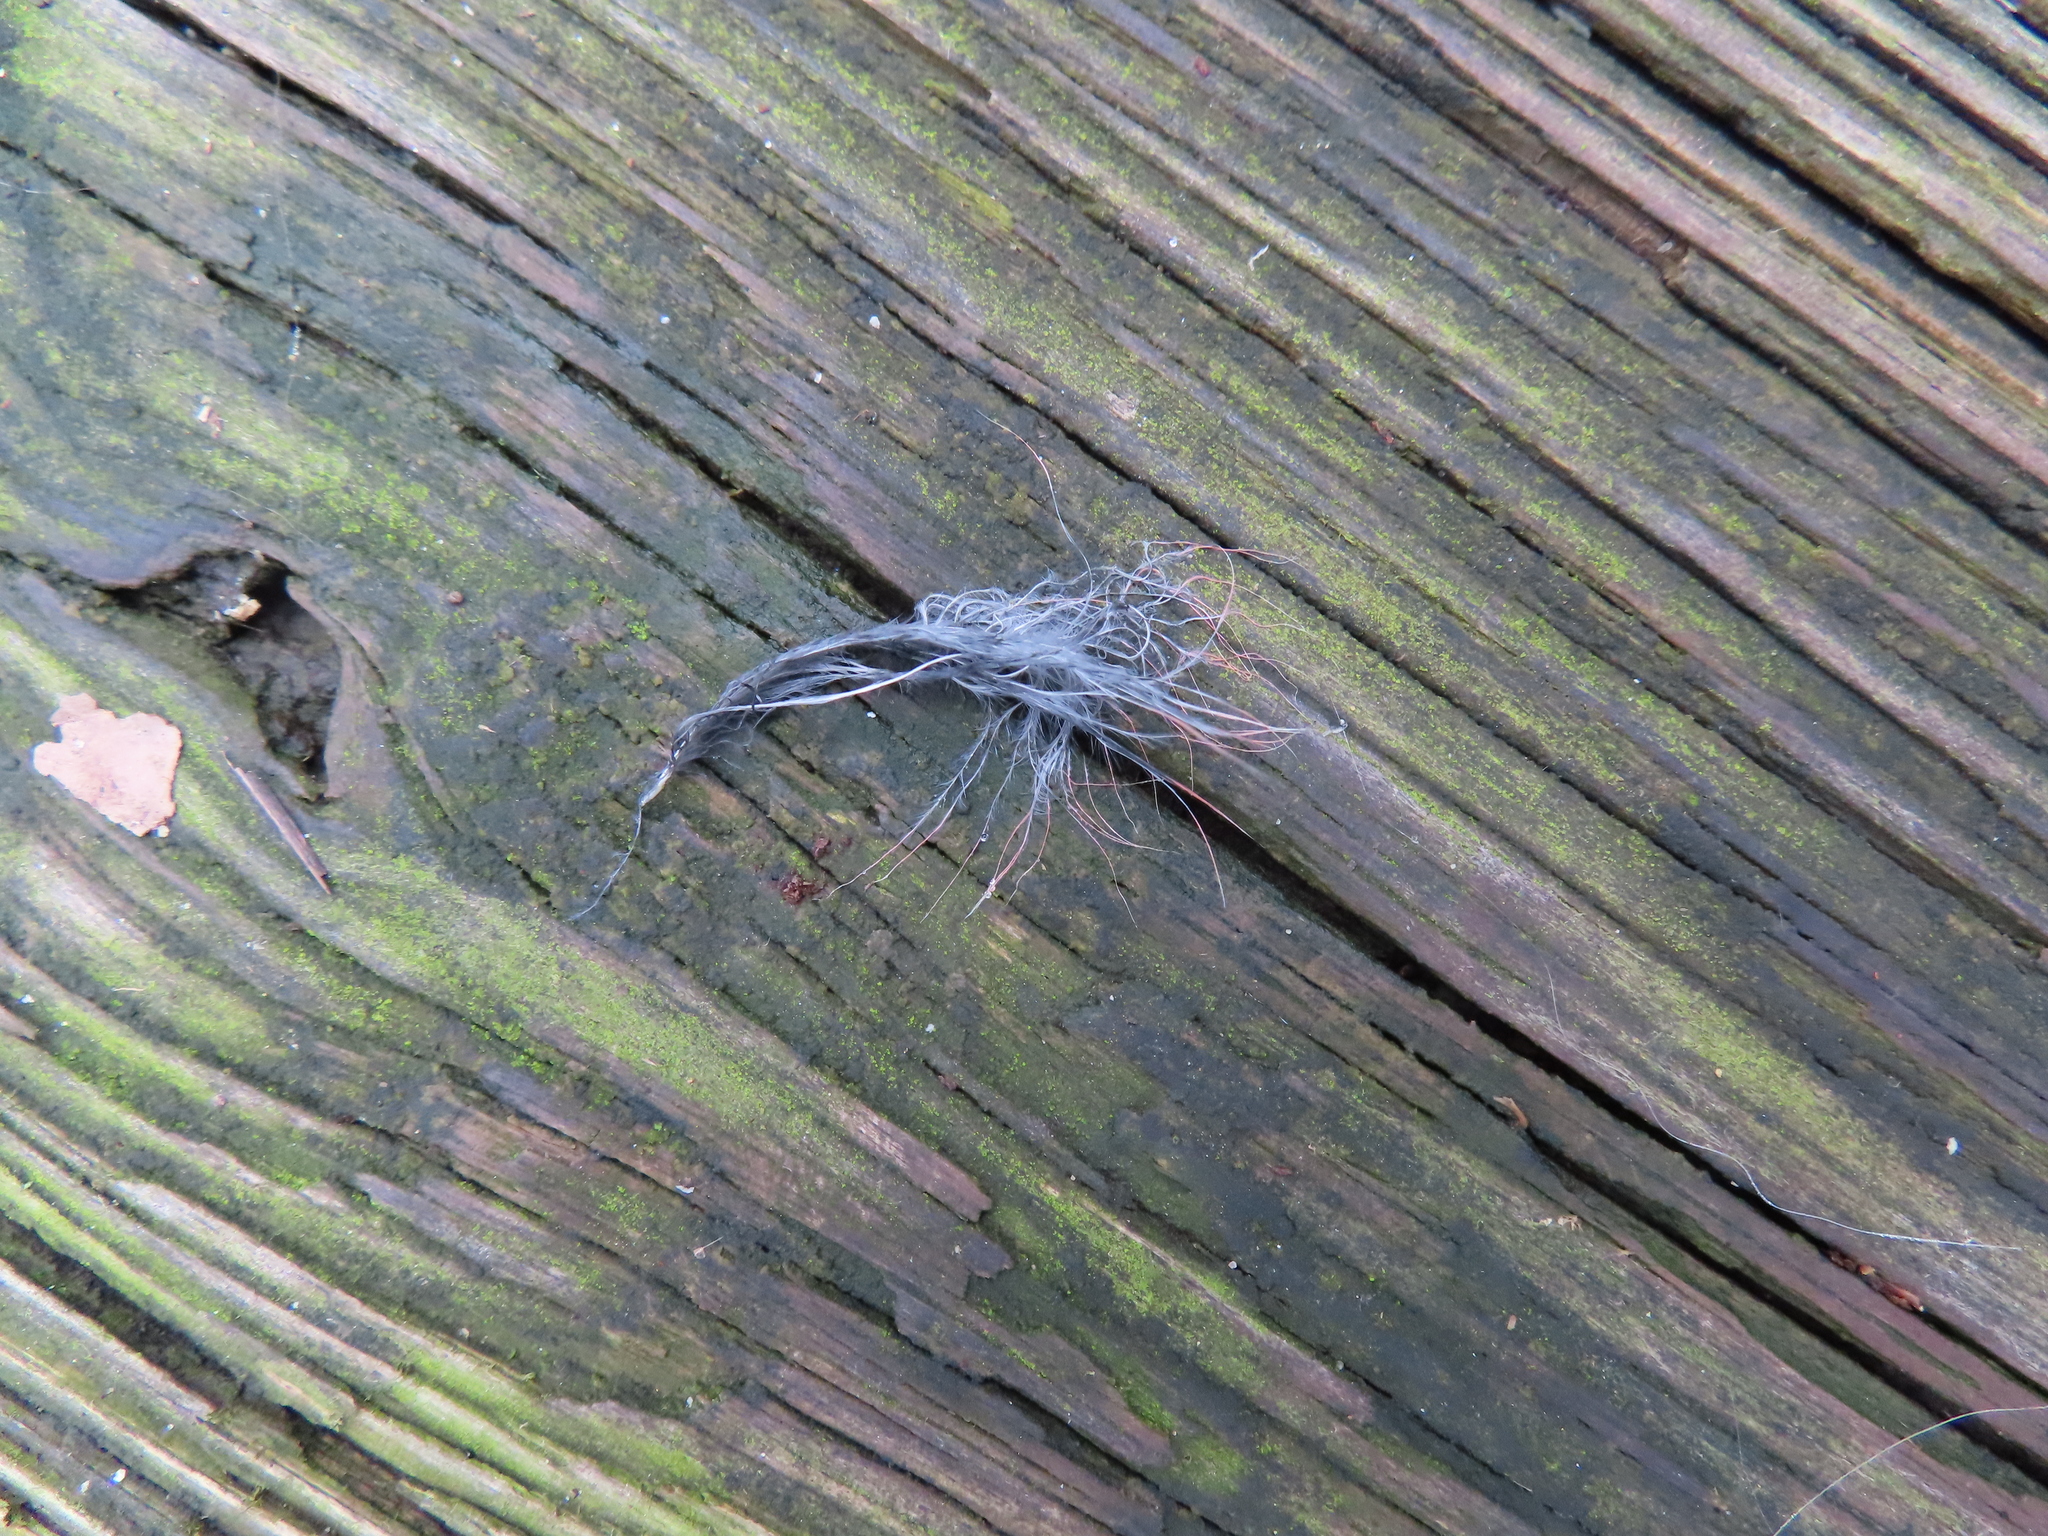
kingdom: Animalia
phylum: Chordata
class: Aves
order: Passeriformes
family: Cardinalidae
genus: Cardinalis
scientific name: Cardinalis cardinalis
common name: Northern cardinal
